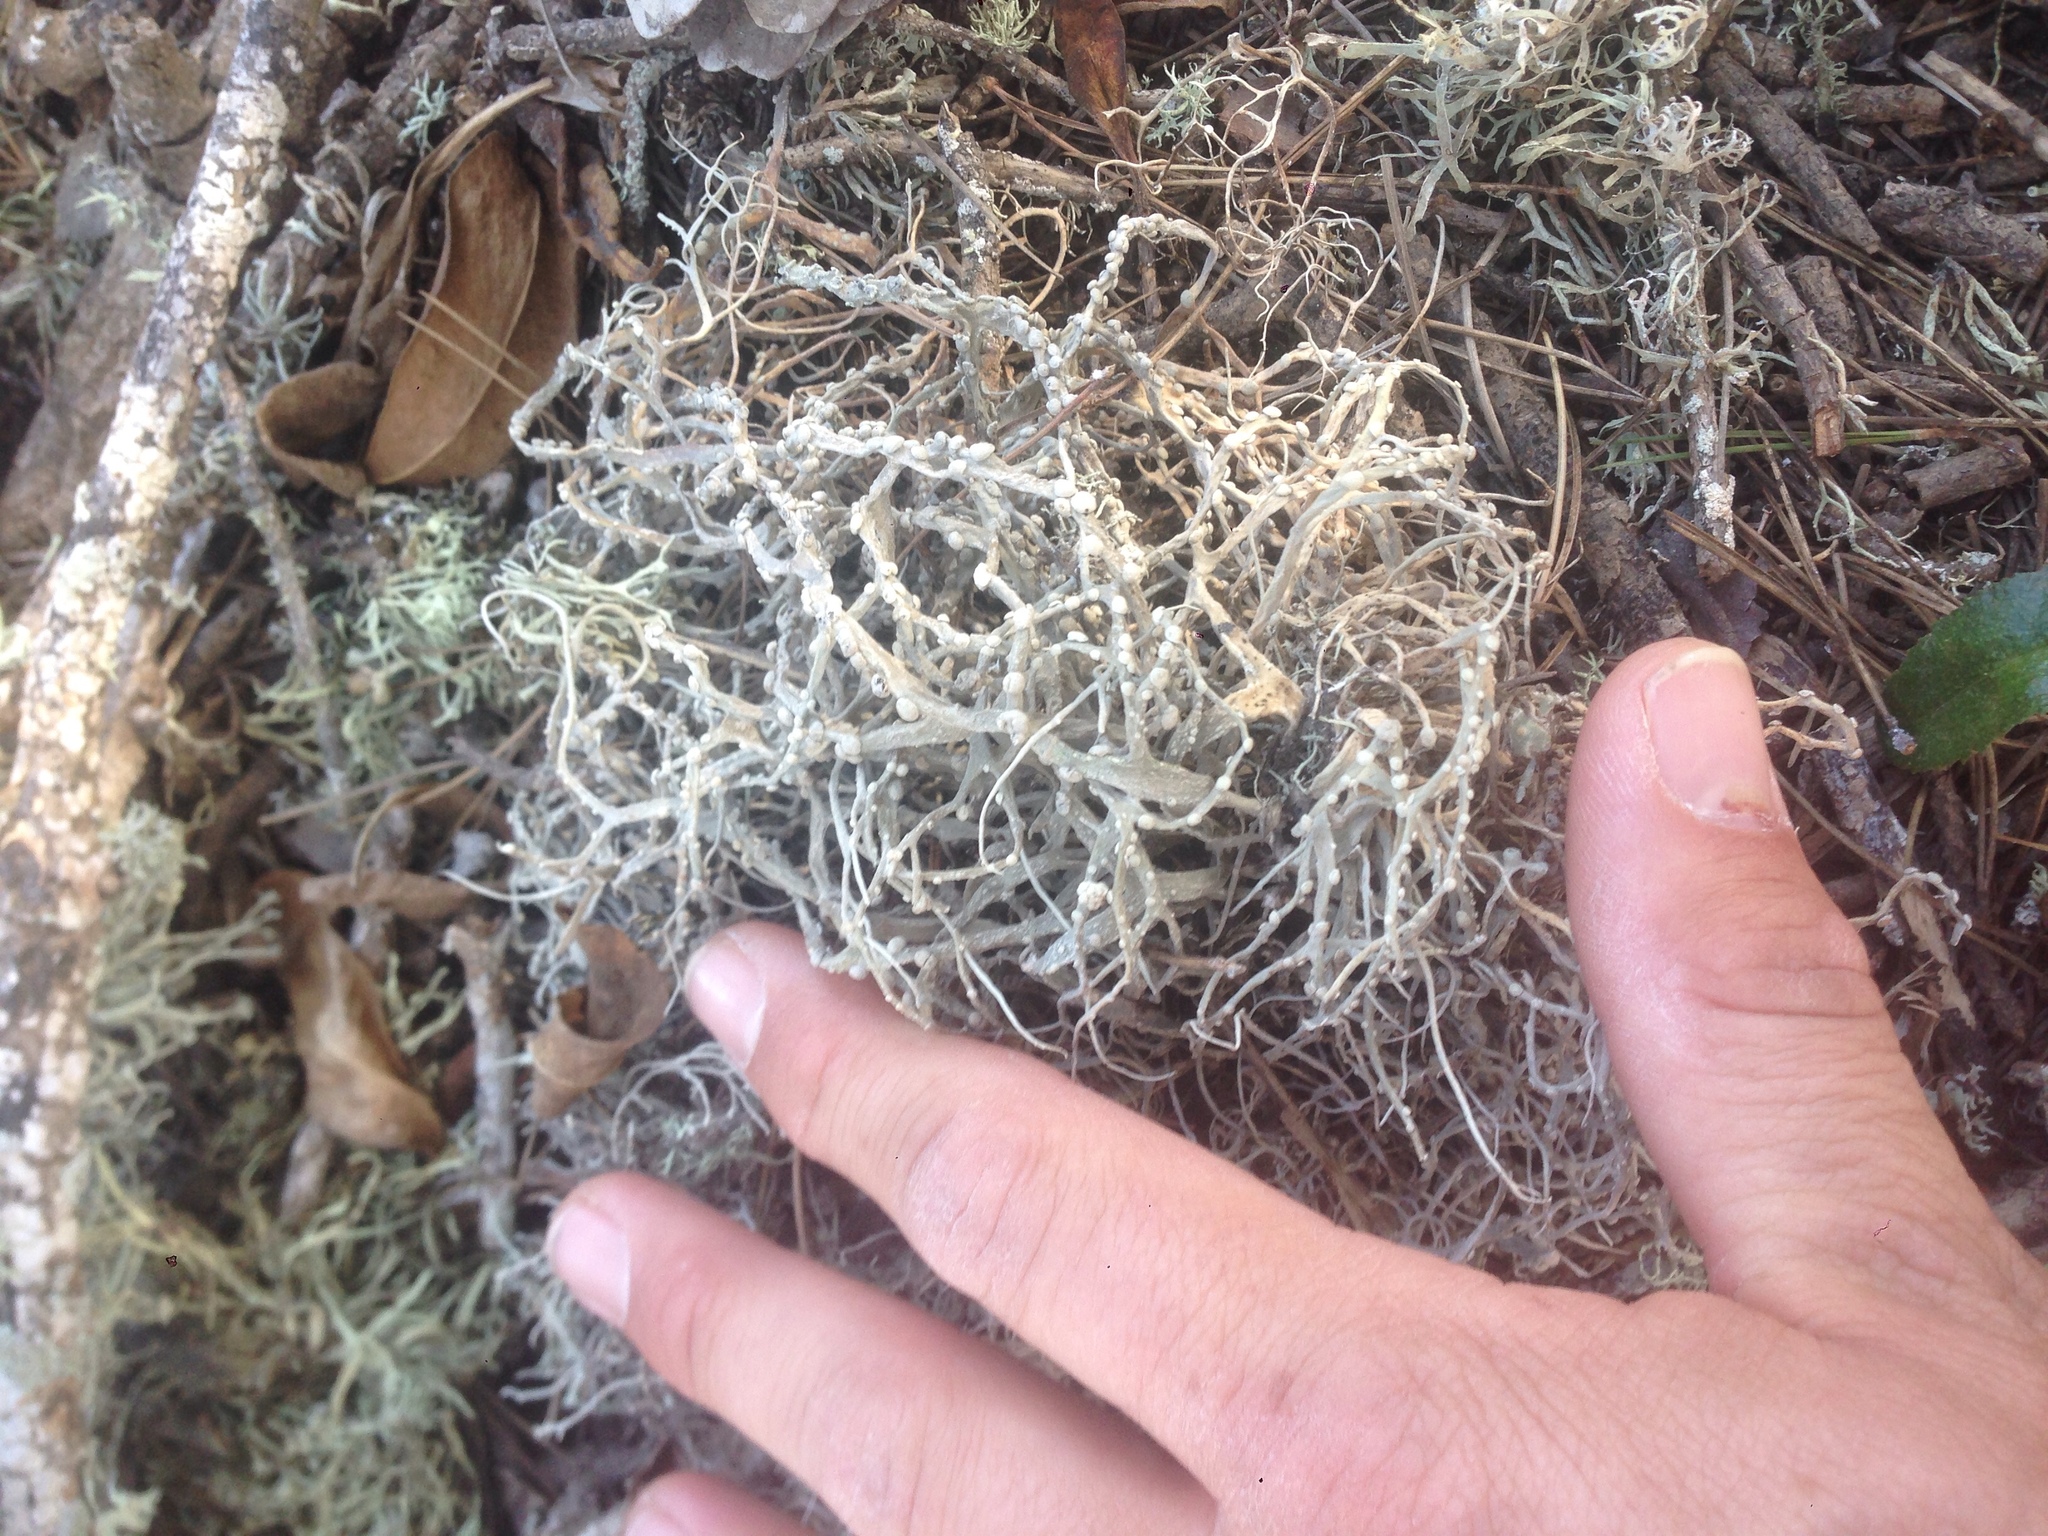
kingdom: Fungi
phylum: Ascomycota
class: Arthoniomycetes
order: Arthoniales
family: Roccellaceae
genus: Roccella
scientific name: Roccella gracilis
